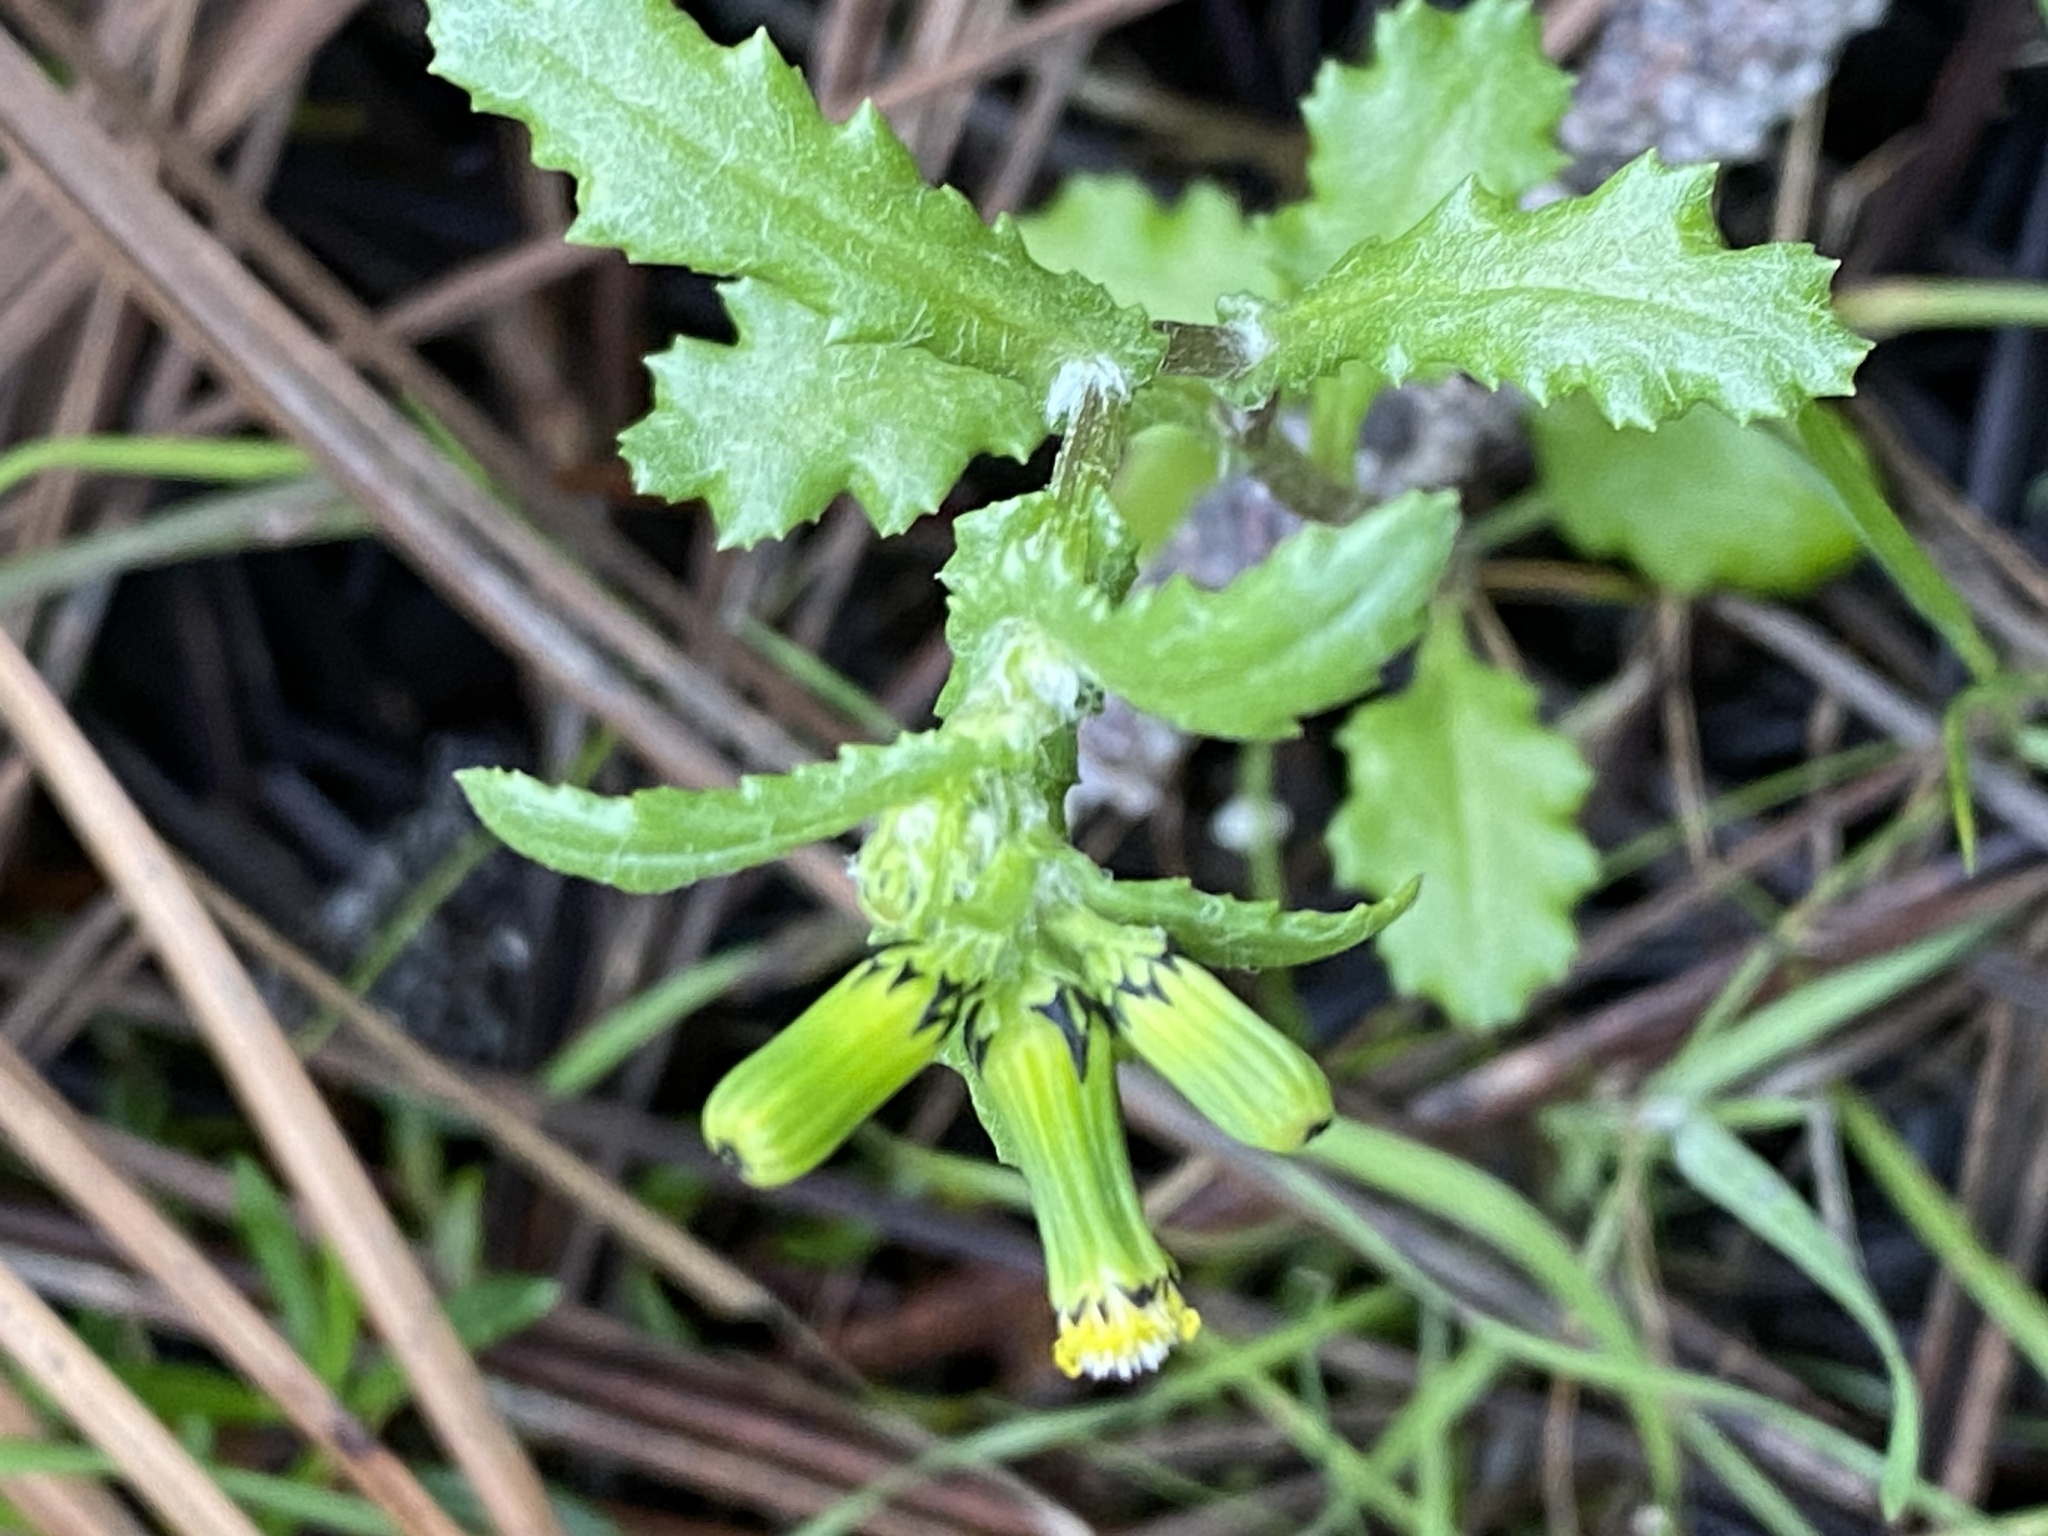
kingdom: Plantae
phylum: Tracheophyta
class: Magnoliopsida
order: Asterales
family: Asteraceae
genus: Senecio
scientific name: Senecio vulgaris
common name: Old-man-in-the-spring
